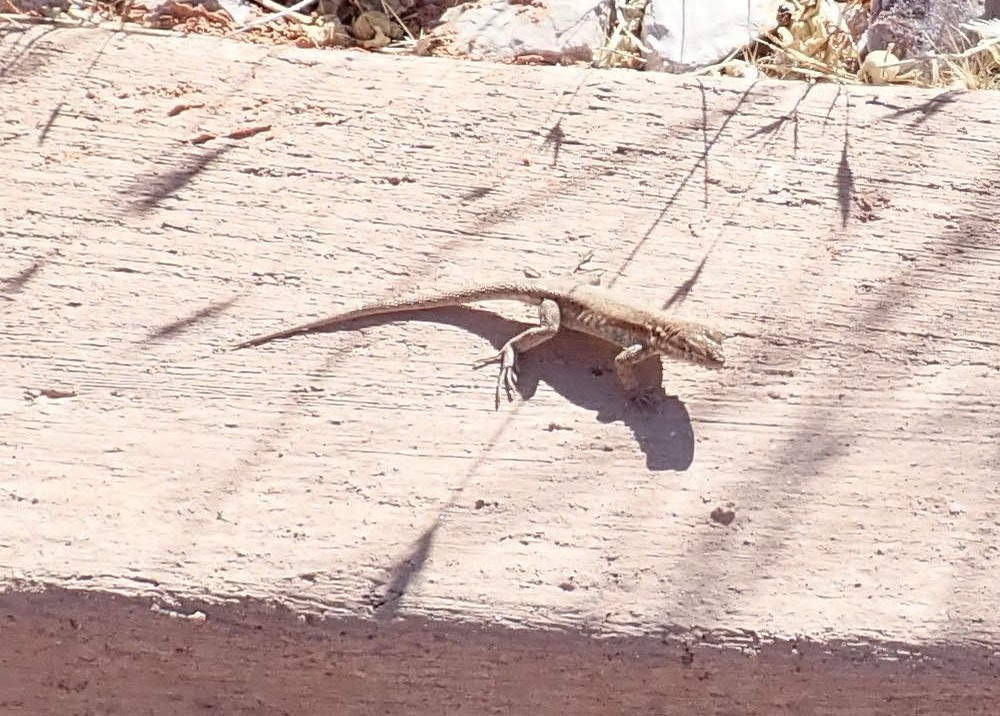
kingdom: Animalia
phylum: Chordata
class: Squamata
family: Phrynosomatidae
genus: Uta
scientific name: Uta stansburiana
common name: Side-blotched lizard
